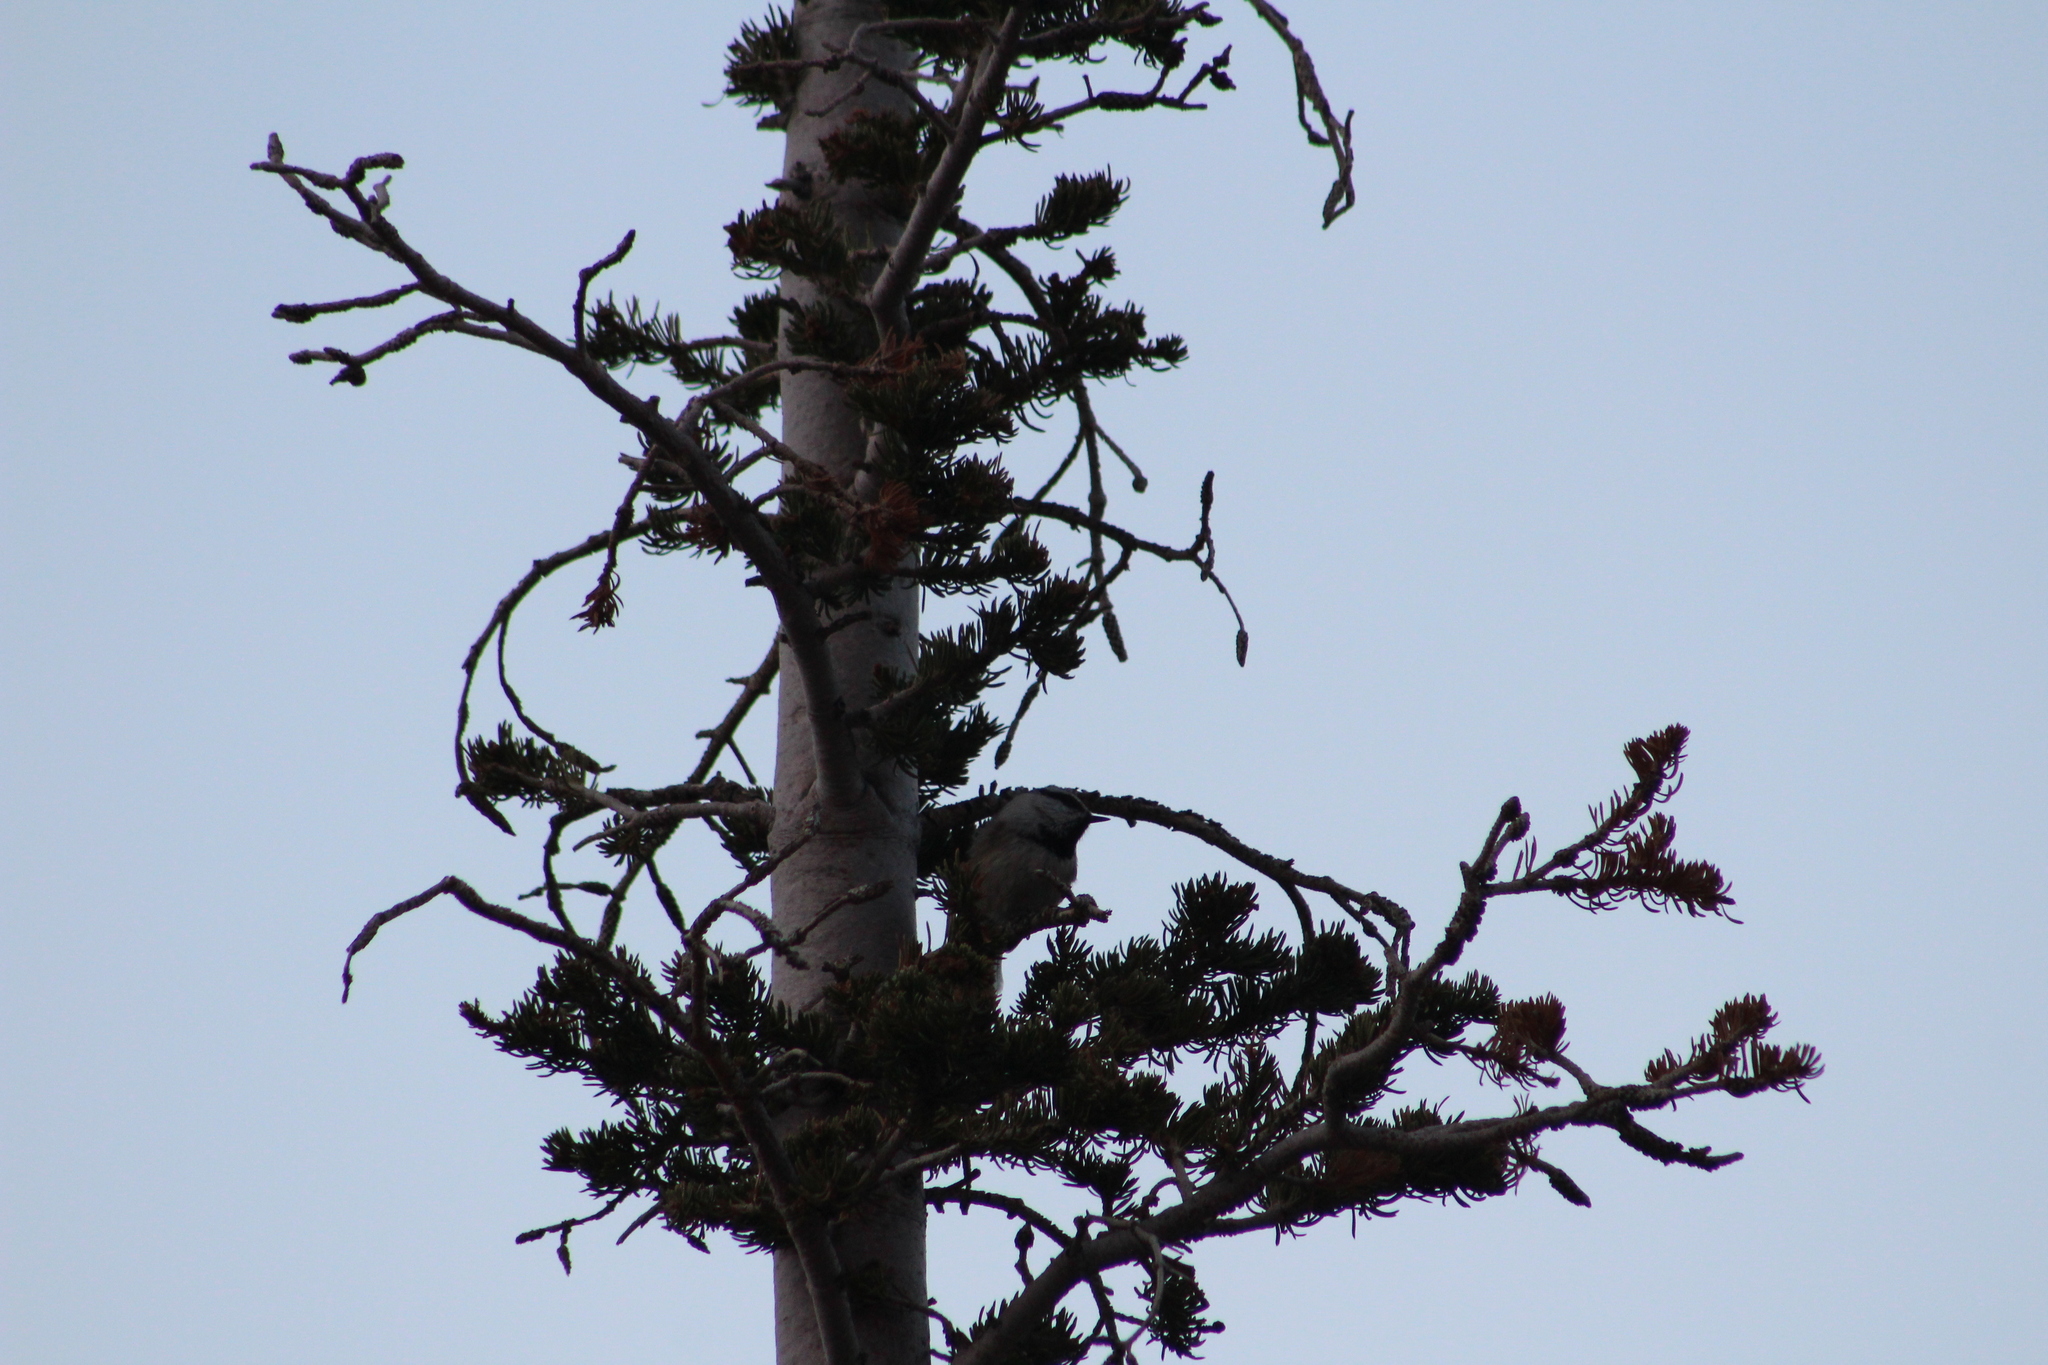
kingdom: Animalia
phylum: Chordata
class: Aves
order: Passeriformes
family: Paridae
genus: Poecile
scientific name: Poecile gambeli
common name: Mountain chickadee
